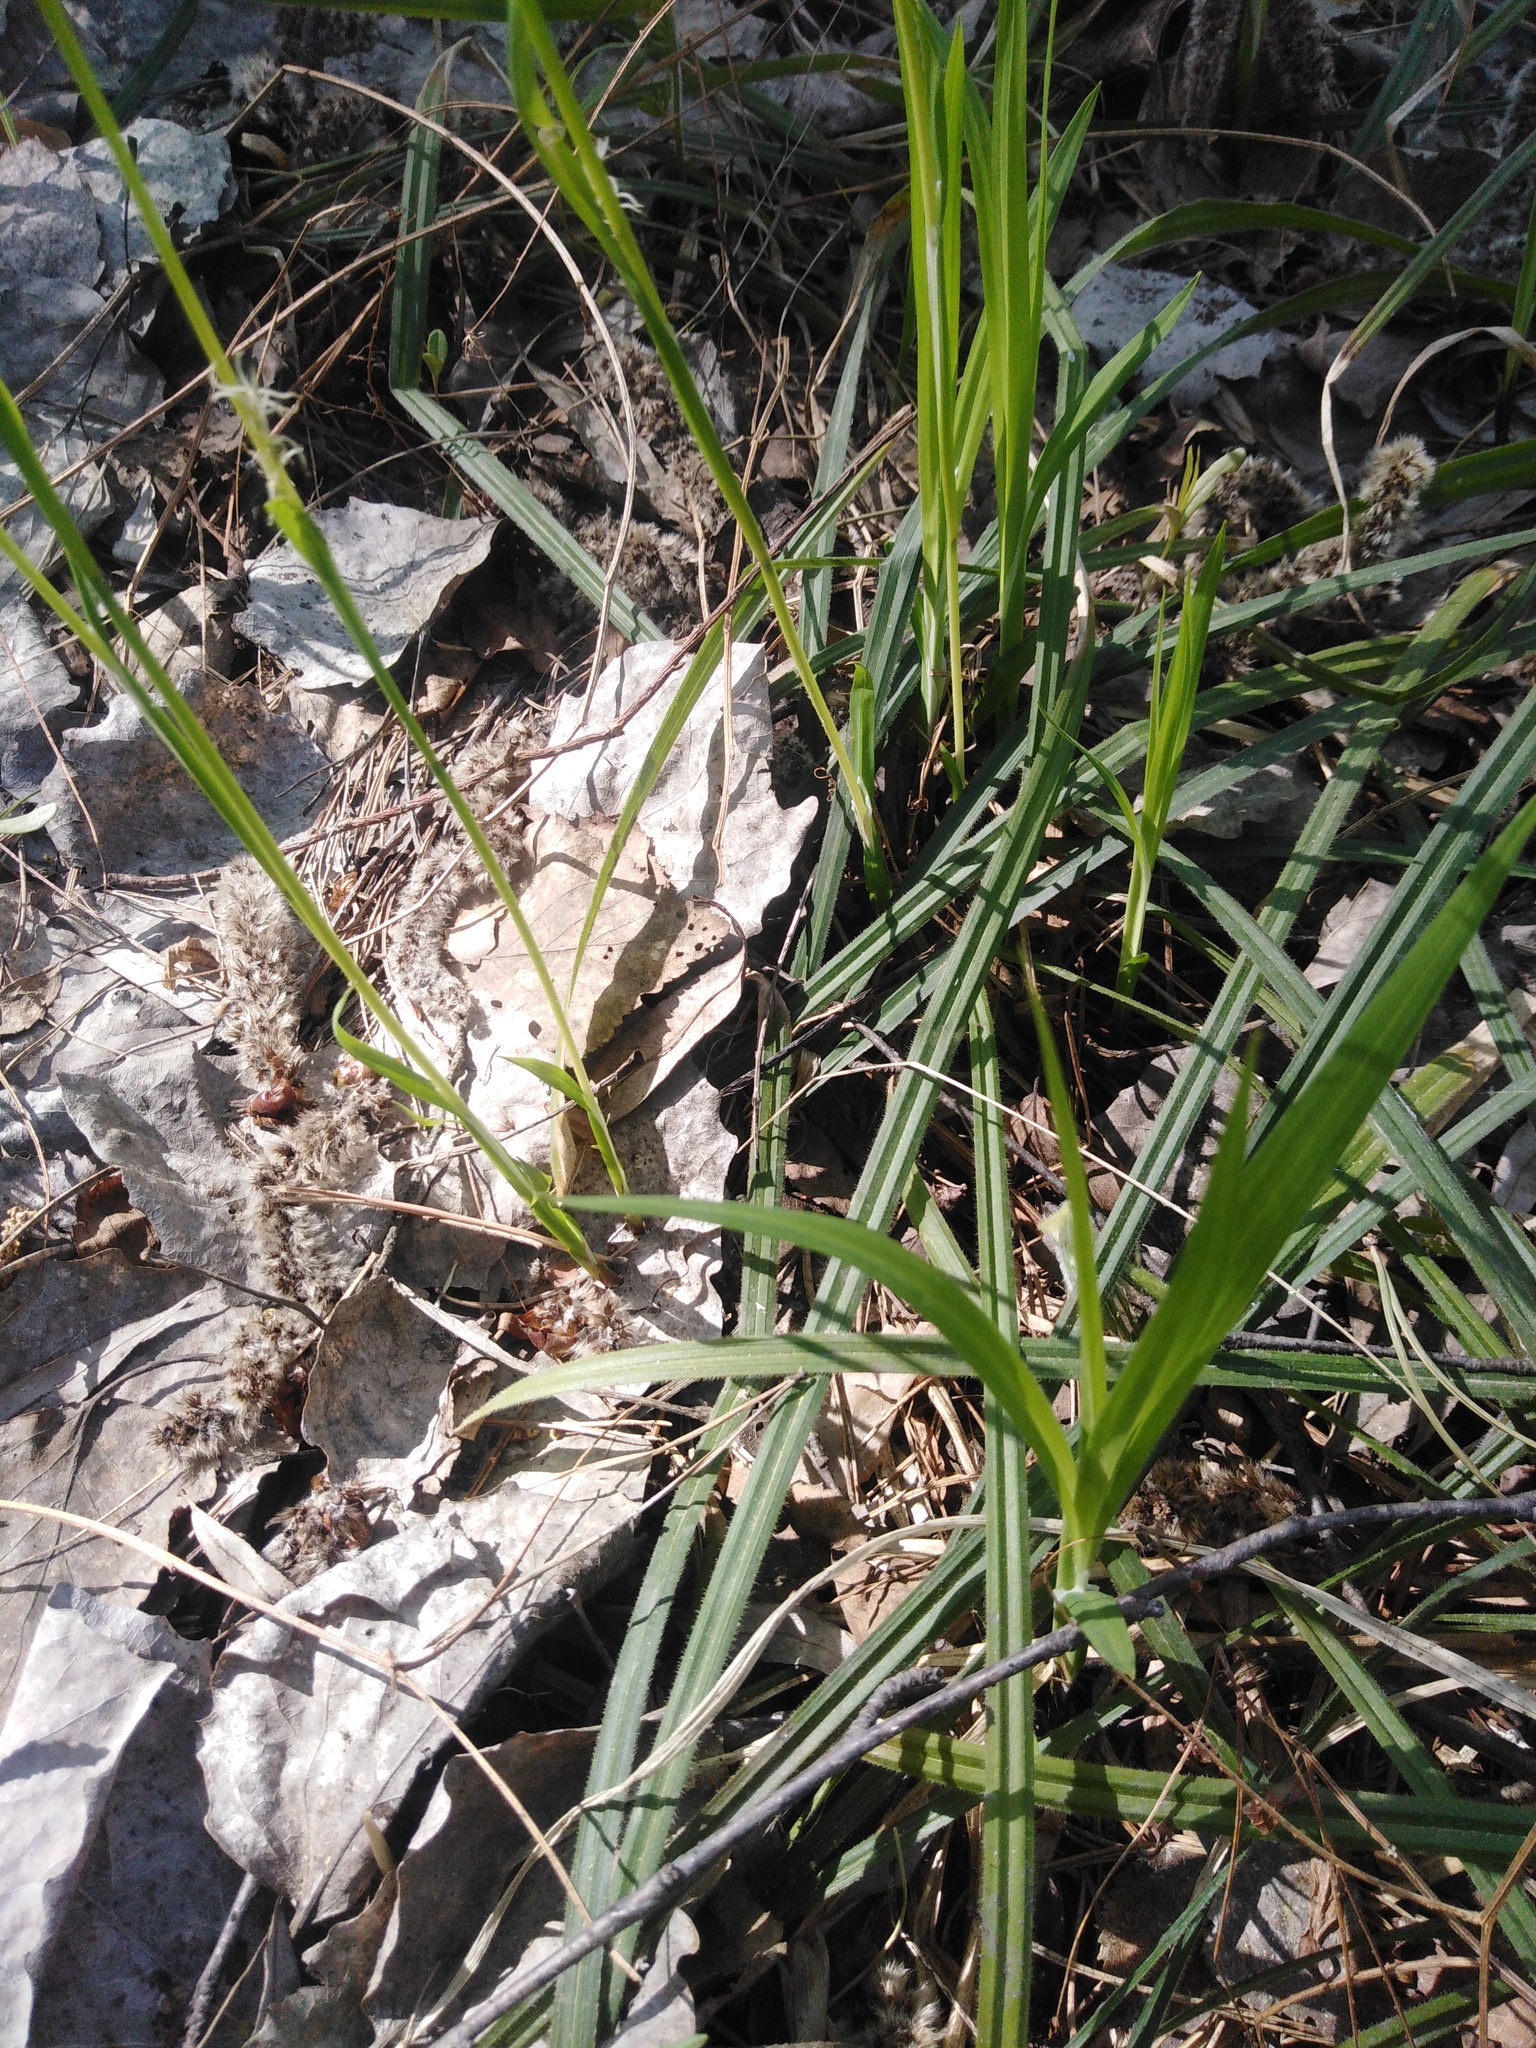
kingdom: Plantae
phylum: Tracheophyta
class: Liliopsida
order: Poales
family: Cyperaceae
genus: Carex
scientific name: Carex pilosa
